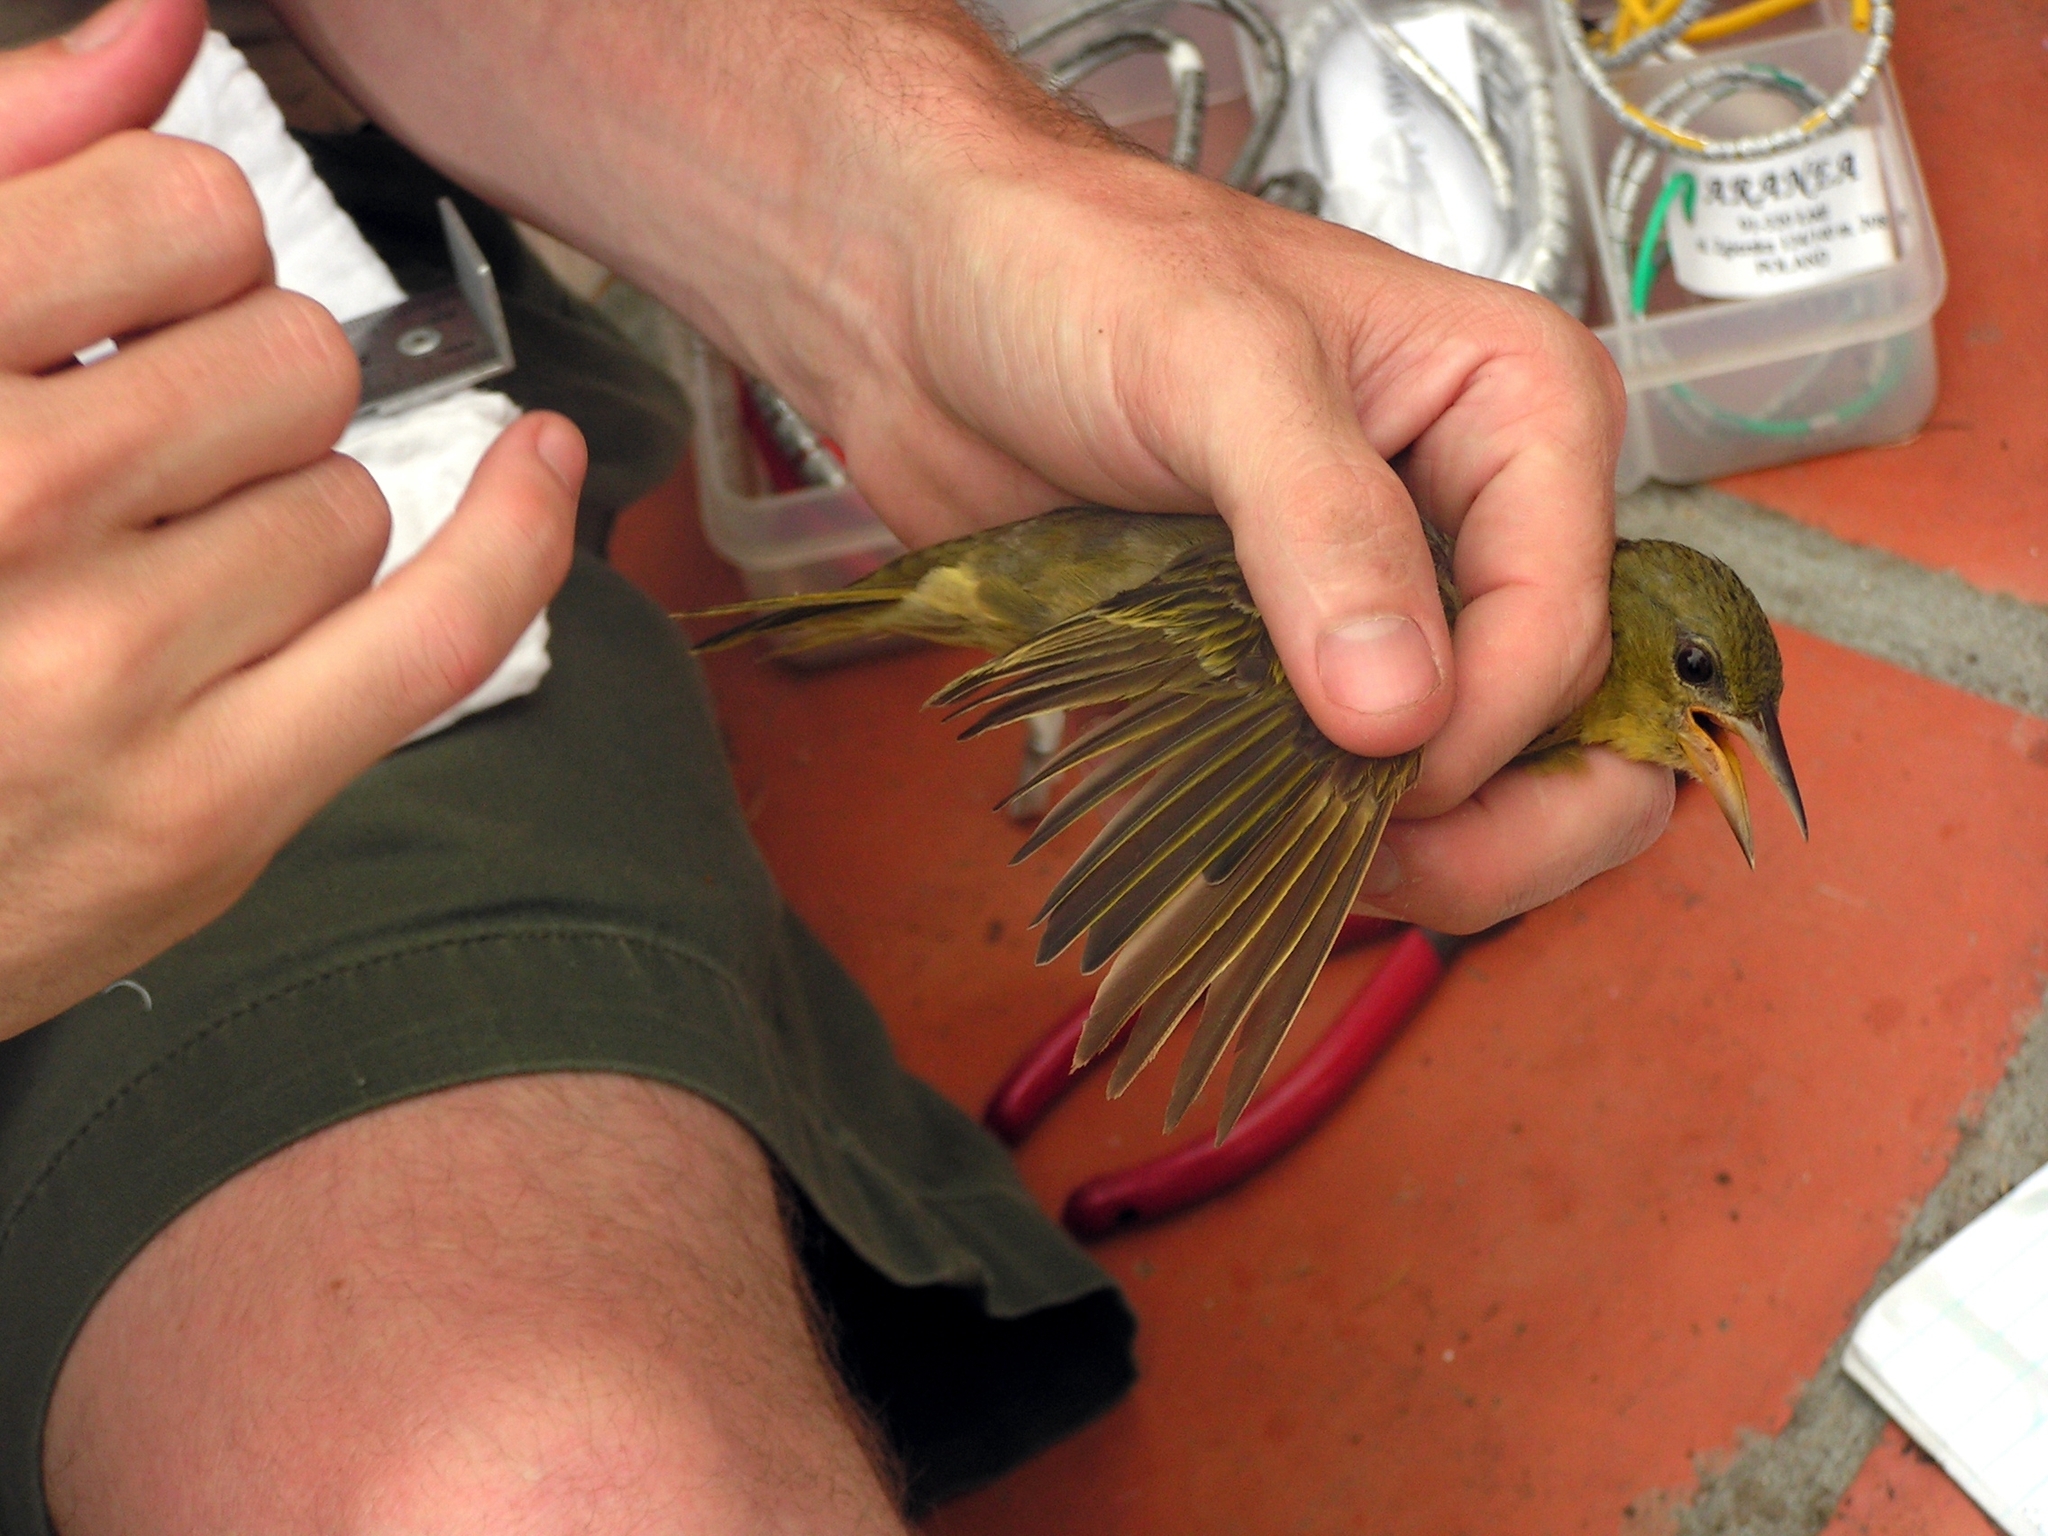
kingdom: Animalia
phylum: Chordata
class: Aves
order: Passeriformes
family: Ploceidae
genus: Ploceus
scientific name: Ploceus capensis
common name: Cape weaver
